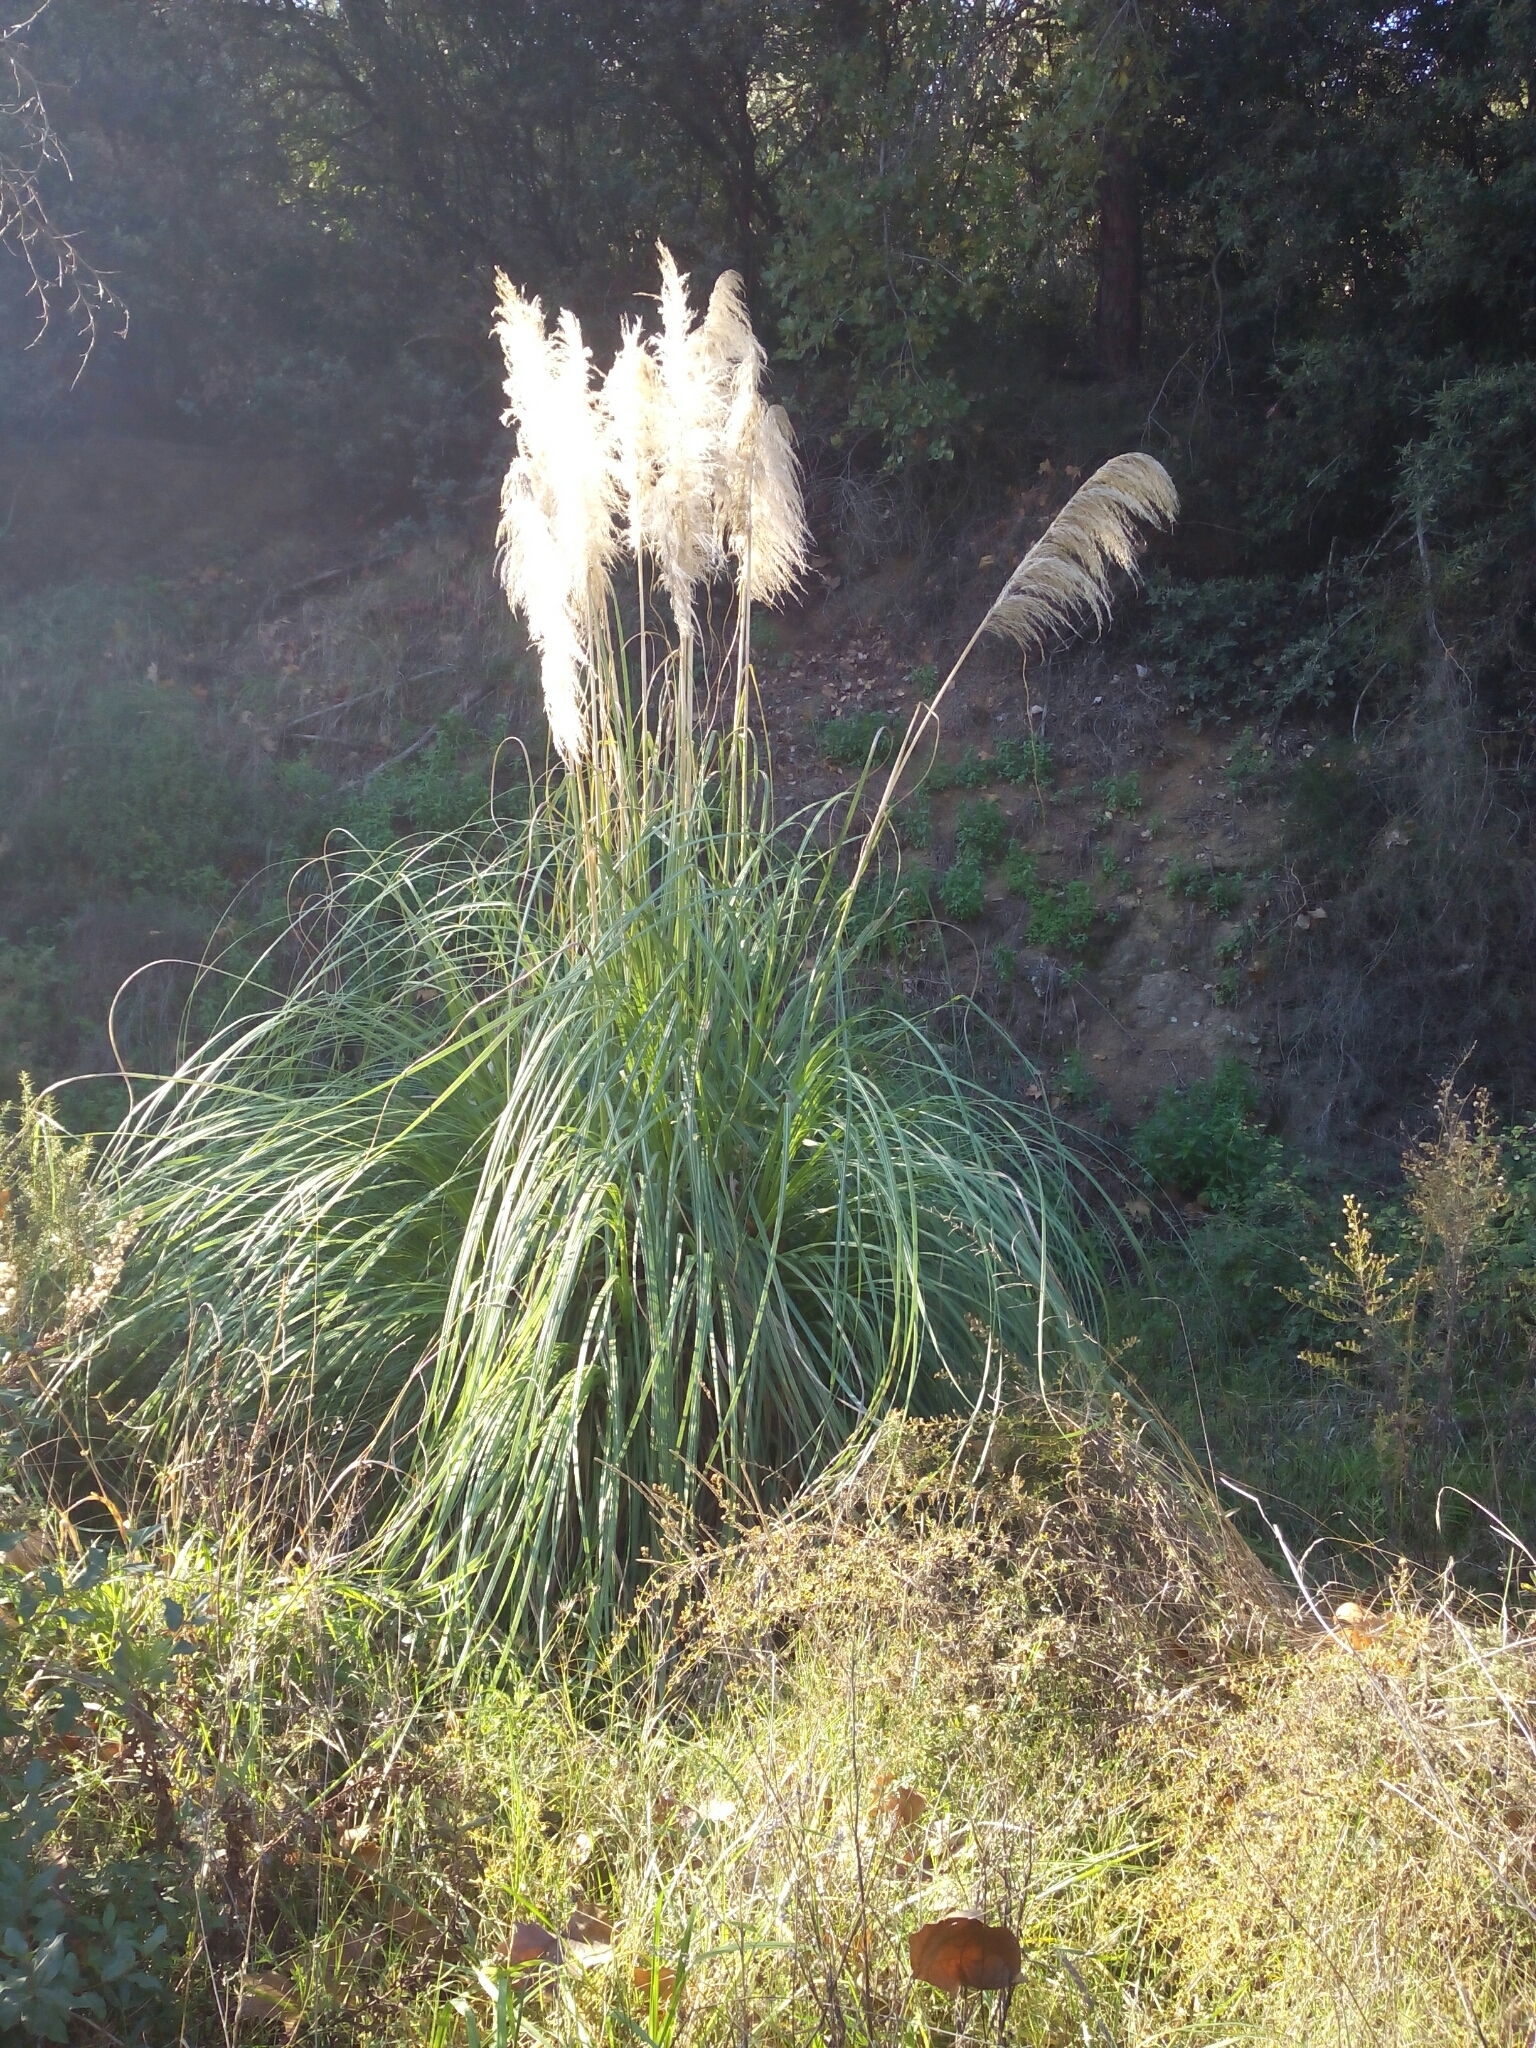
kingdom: Plantae
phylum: Tracheophyta
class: Liliopsida
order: Poales
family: Poaceae
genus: Cortaderia
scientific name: Cortaderia selloana
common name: Uruguayan pampas grass
